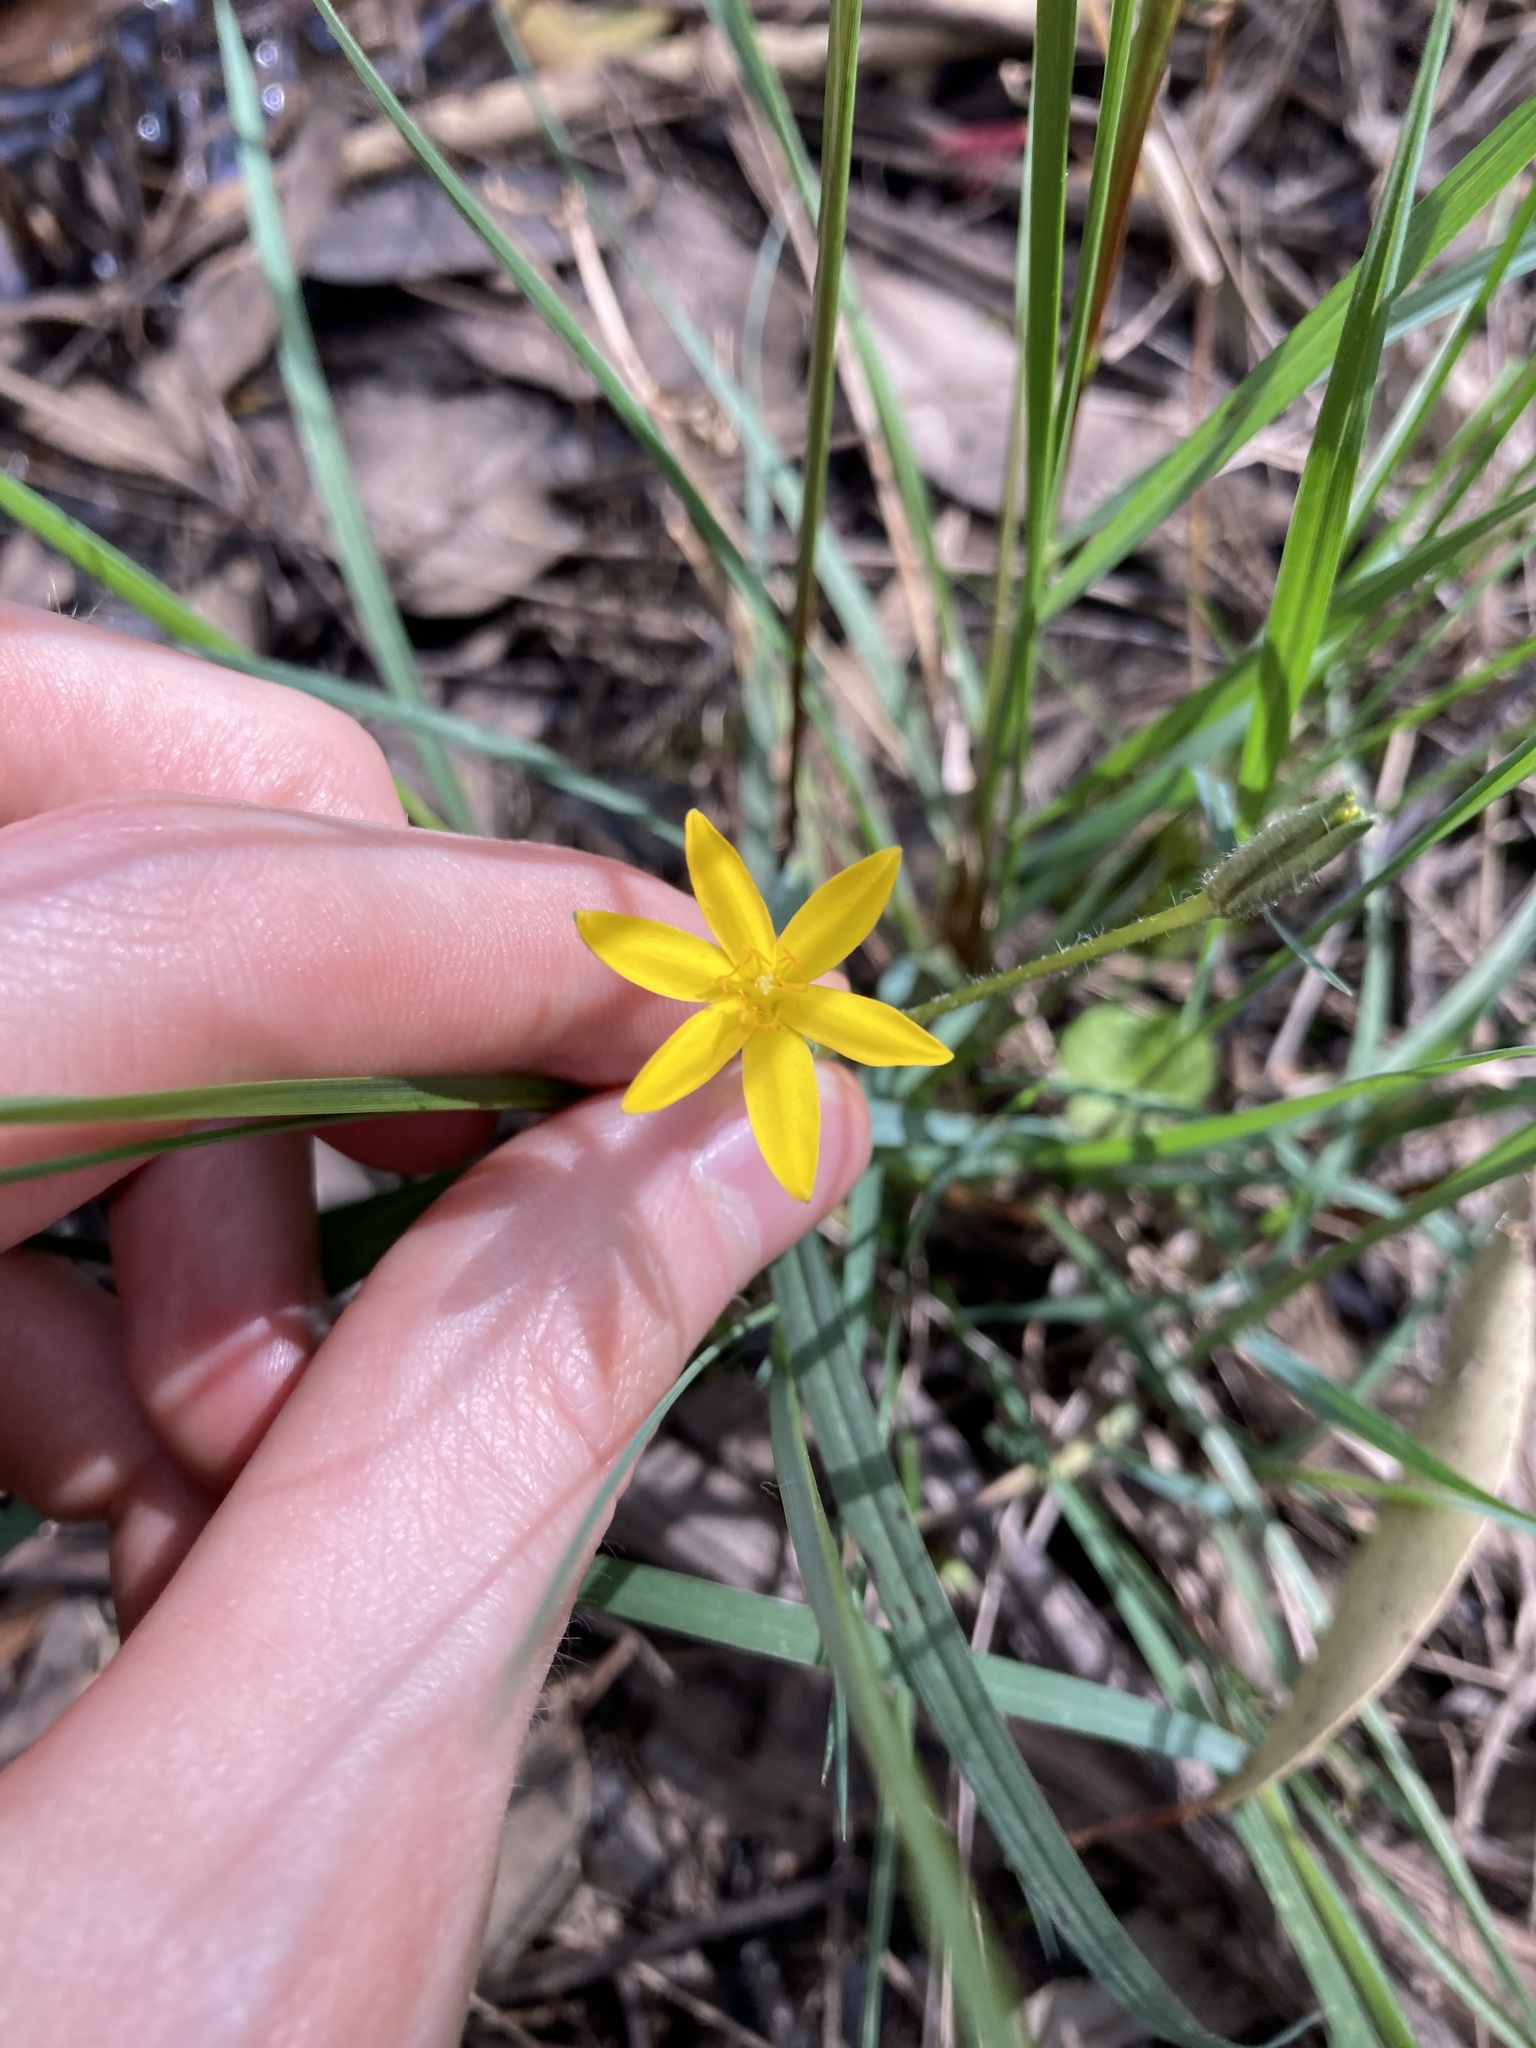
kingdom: Plantae
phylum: Tracheophyta
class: Liliopsida
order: Asparagales
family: Hypoxidaceae
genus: Hypoxis
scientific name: Hypoxis hygrometrica
